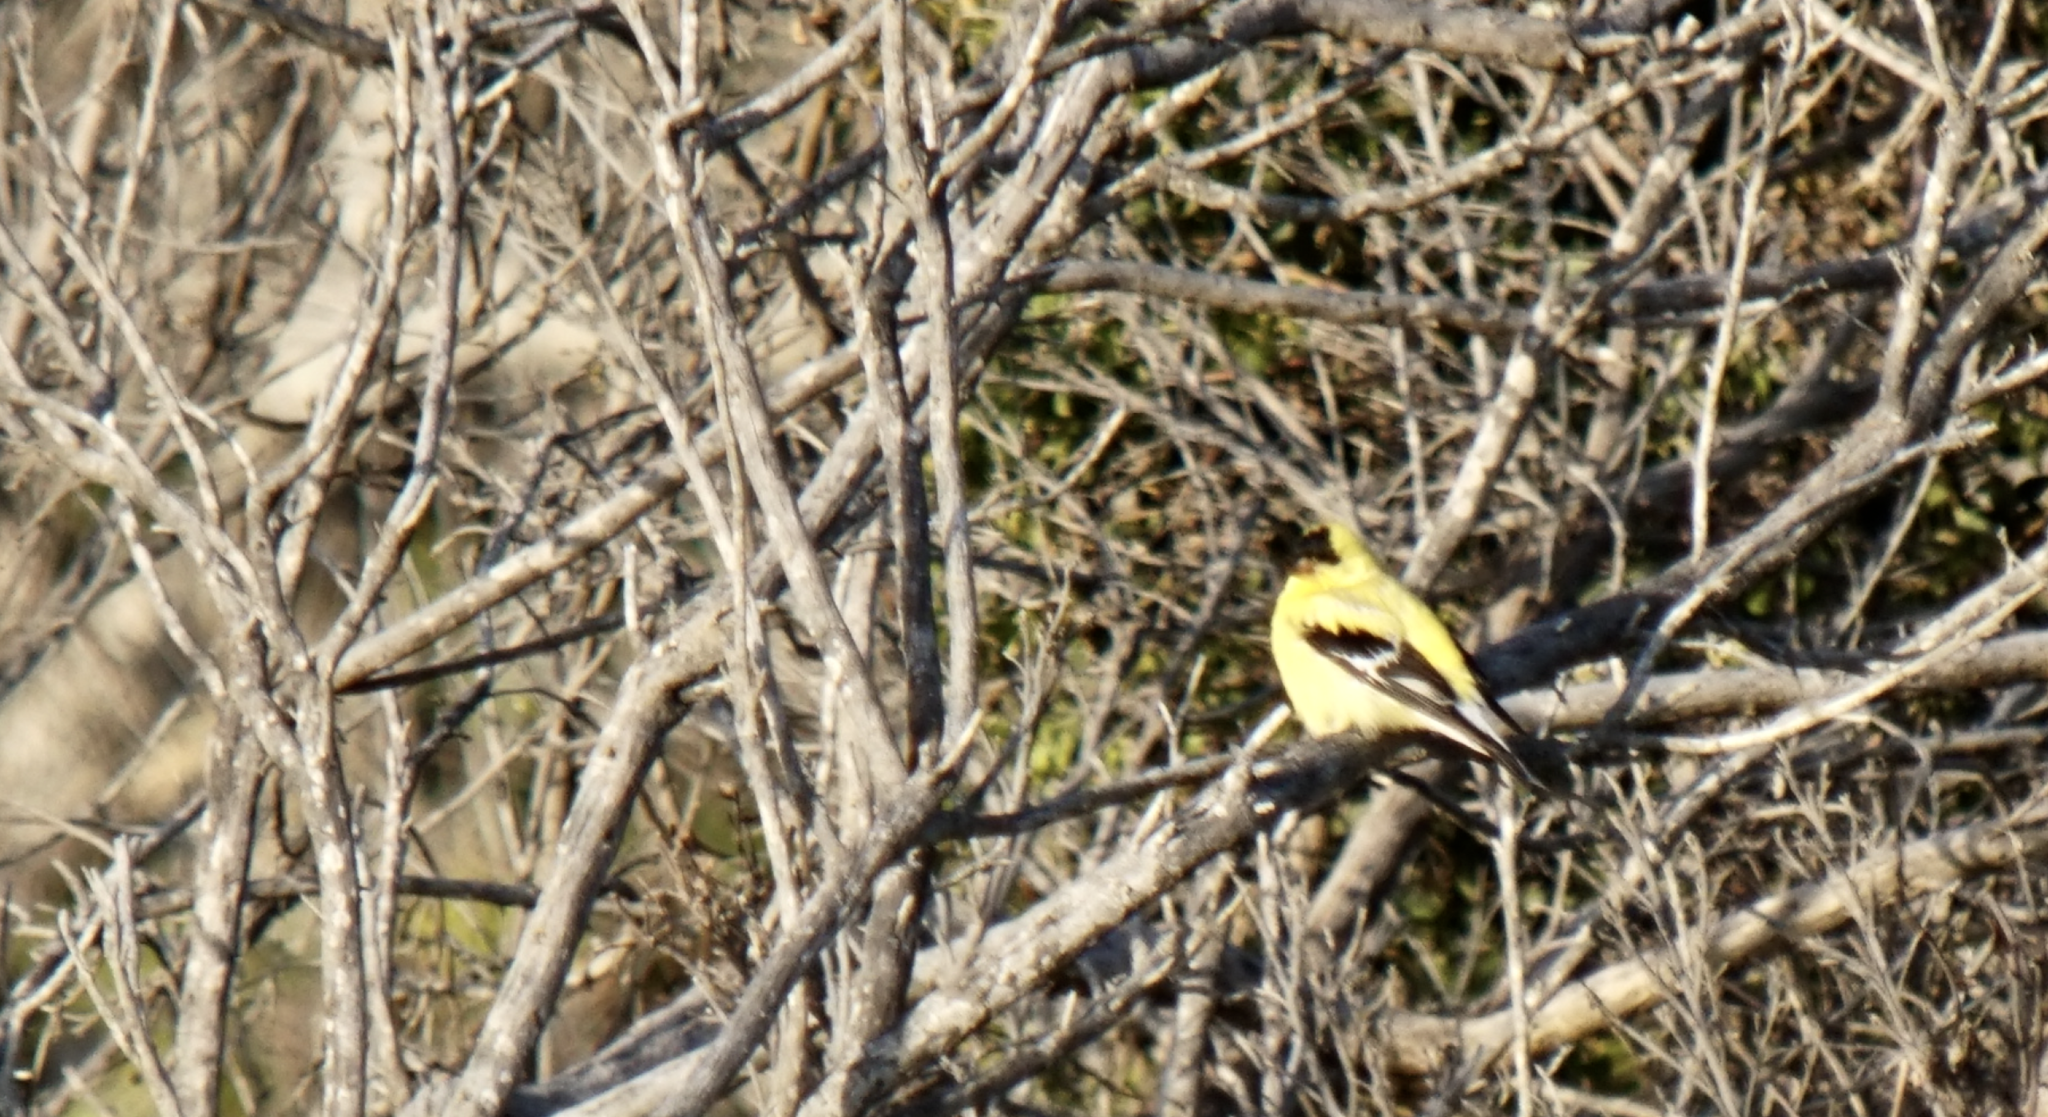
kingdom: Animalia
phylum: Chordata
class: Aves
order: Passeriformes
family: Fringillidae
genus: Spinus
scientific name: Spinus tristis
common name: American goldfinch
